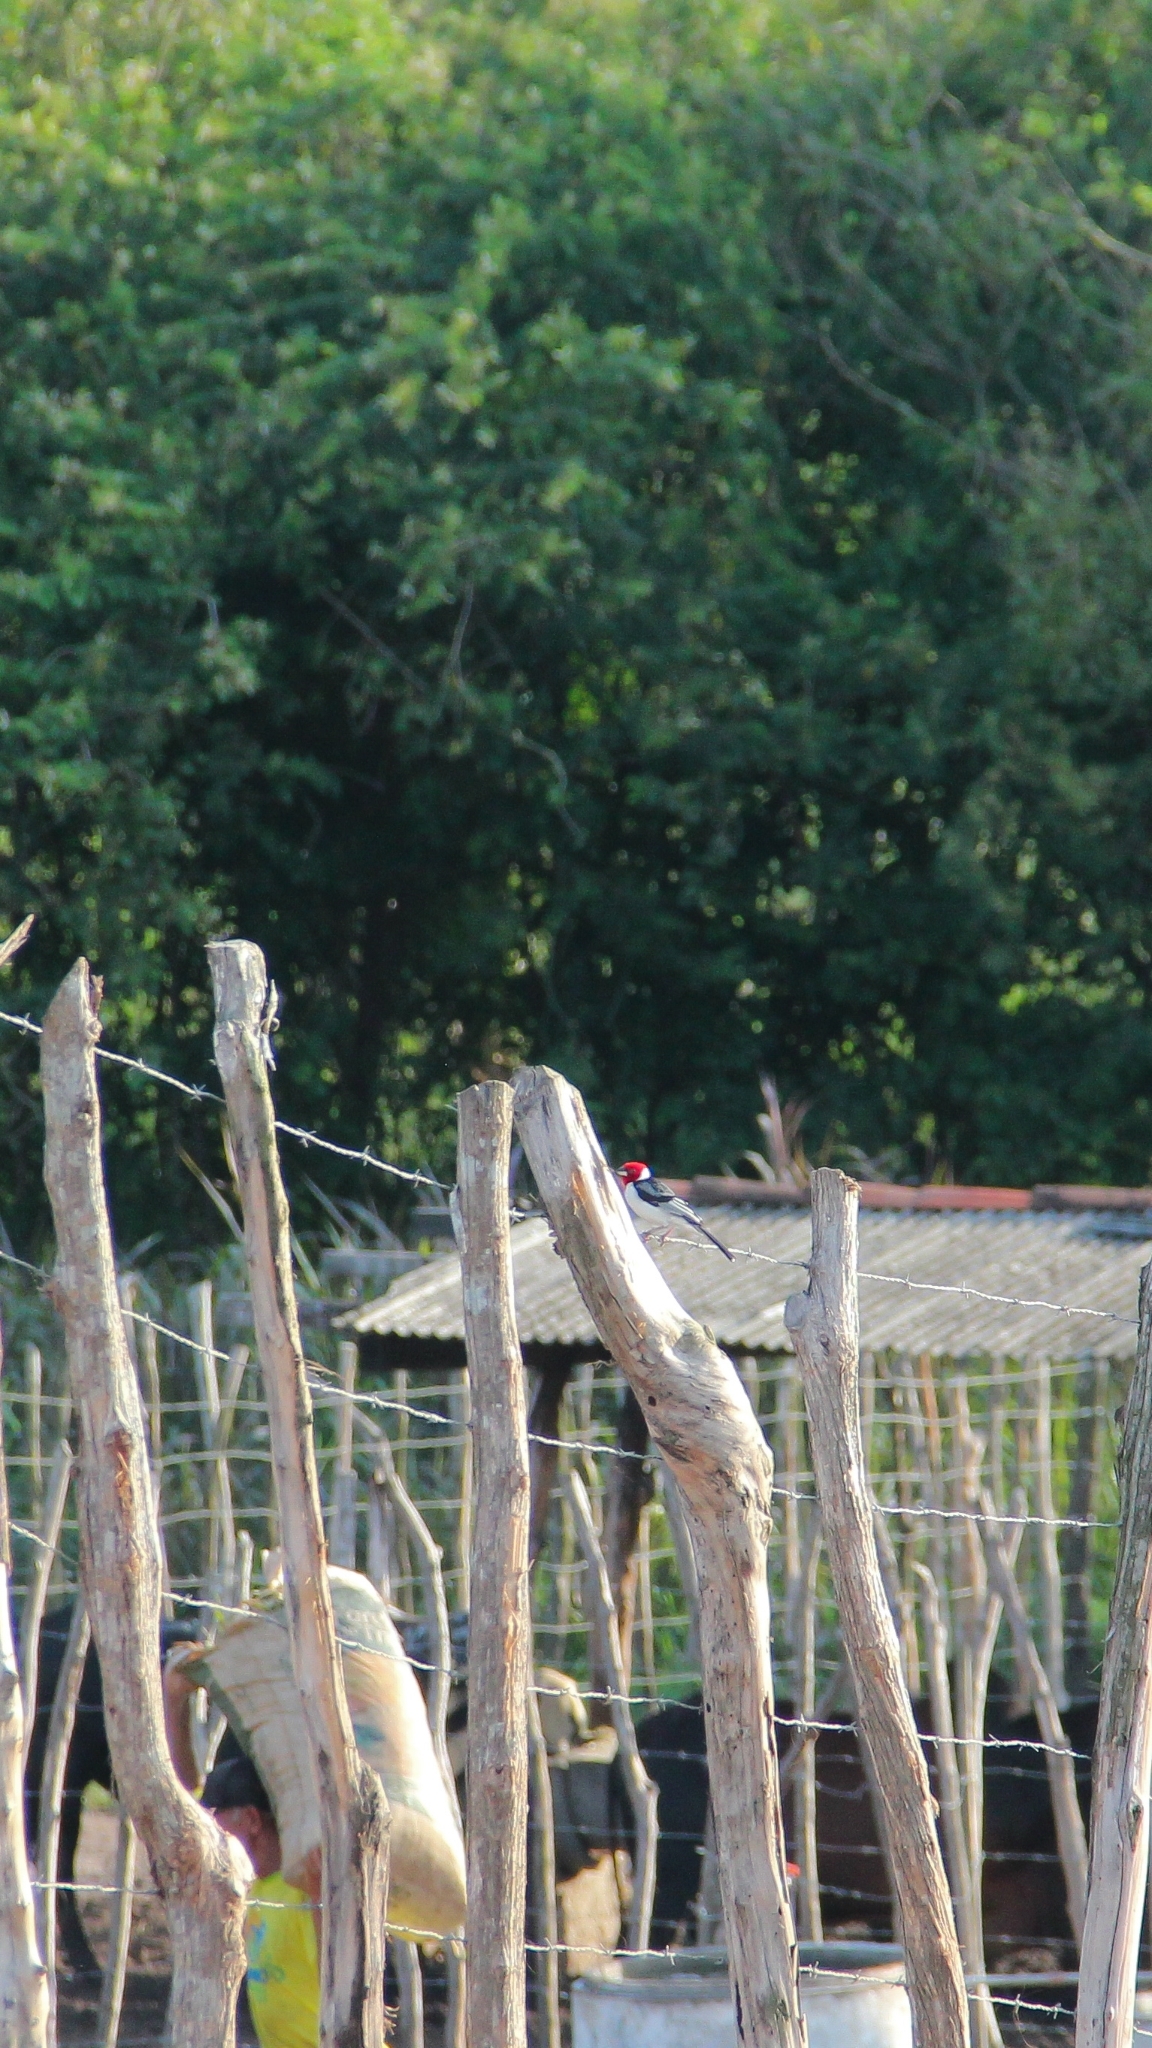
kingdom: Animalia
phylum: Chordata
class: Aves
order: Passeriformes
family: Thraupidae
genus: Paroaria
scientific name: Paroaria dominicana
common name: Red-cowled cardinal
